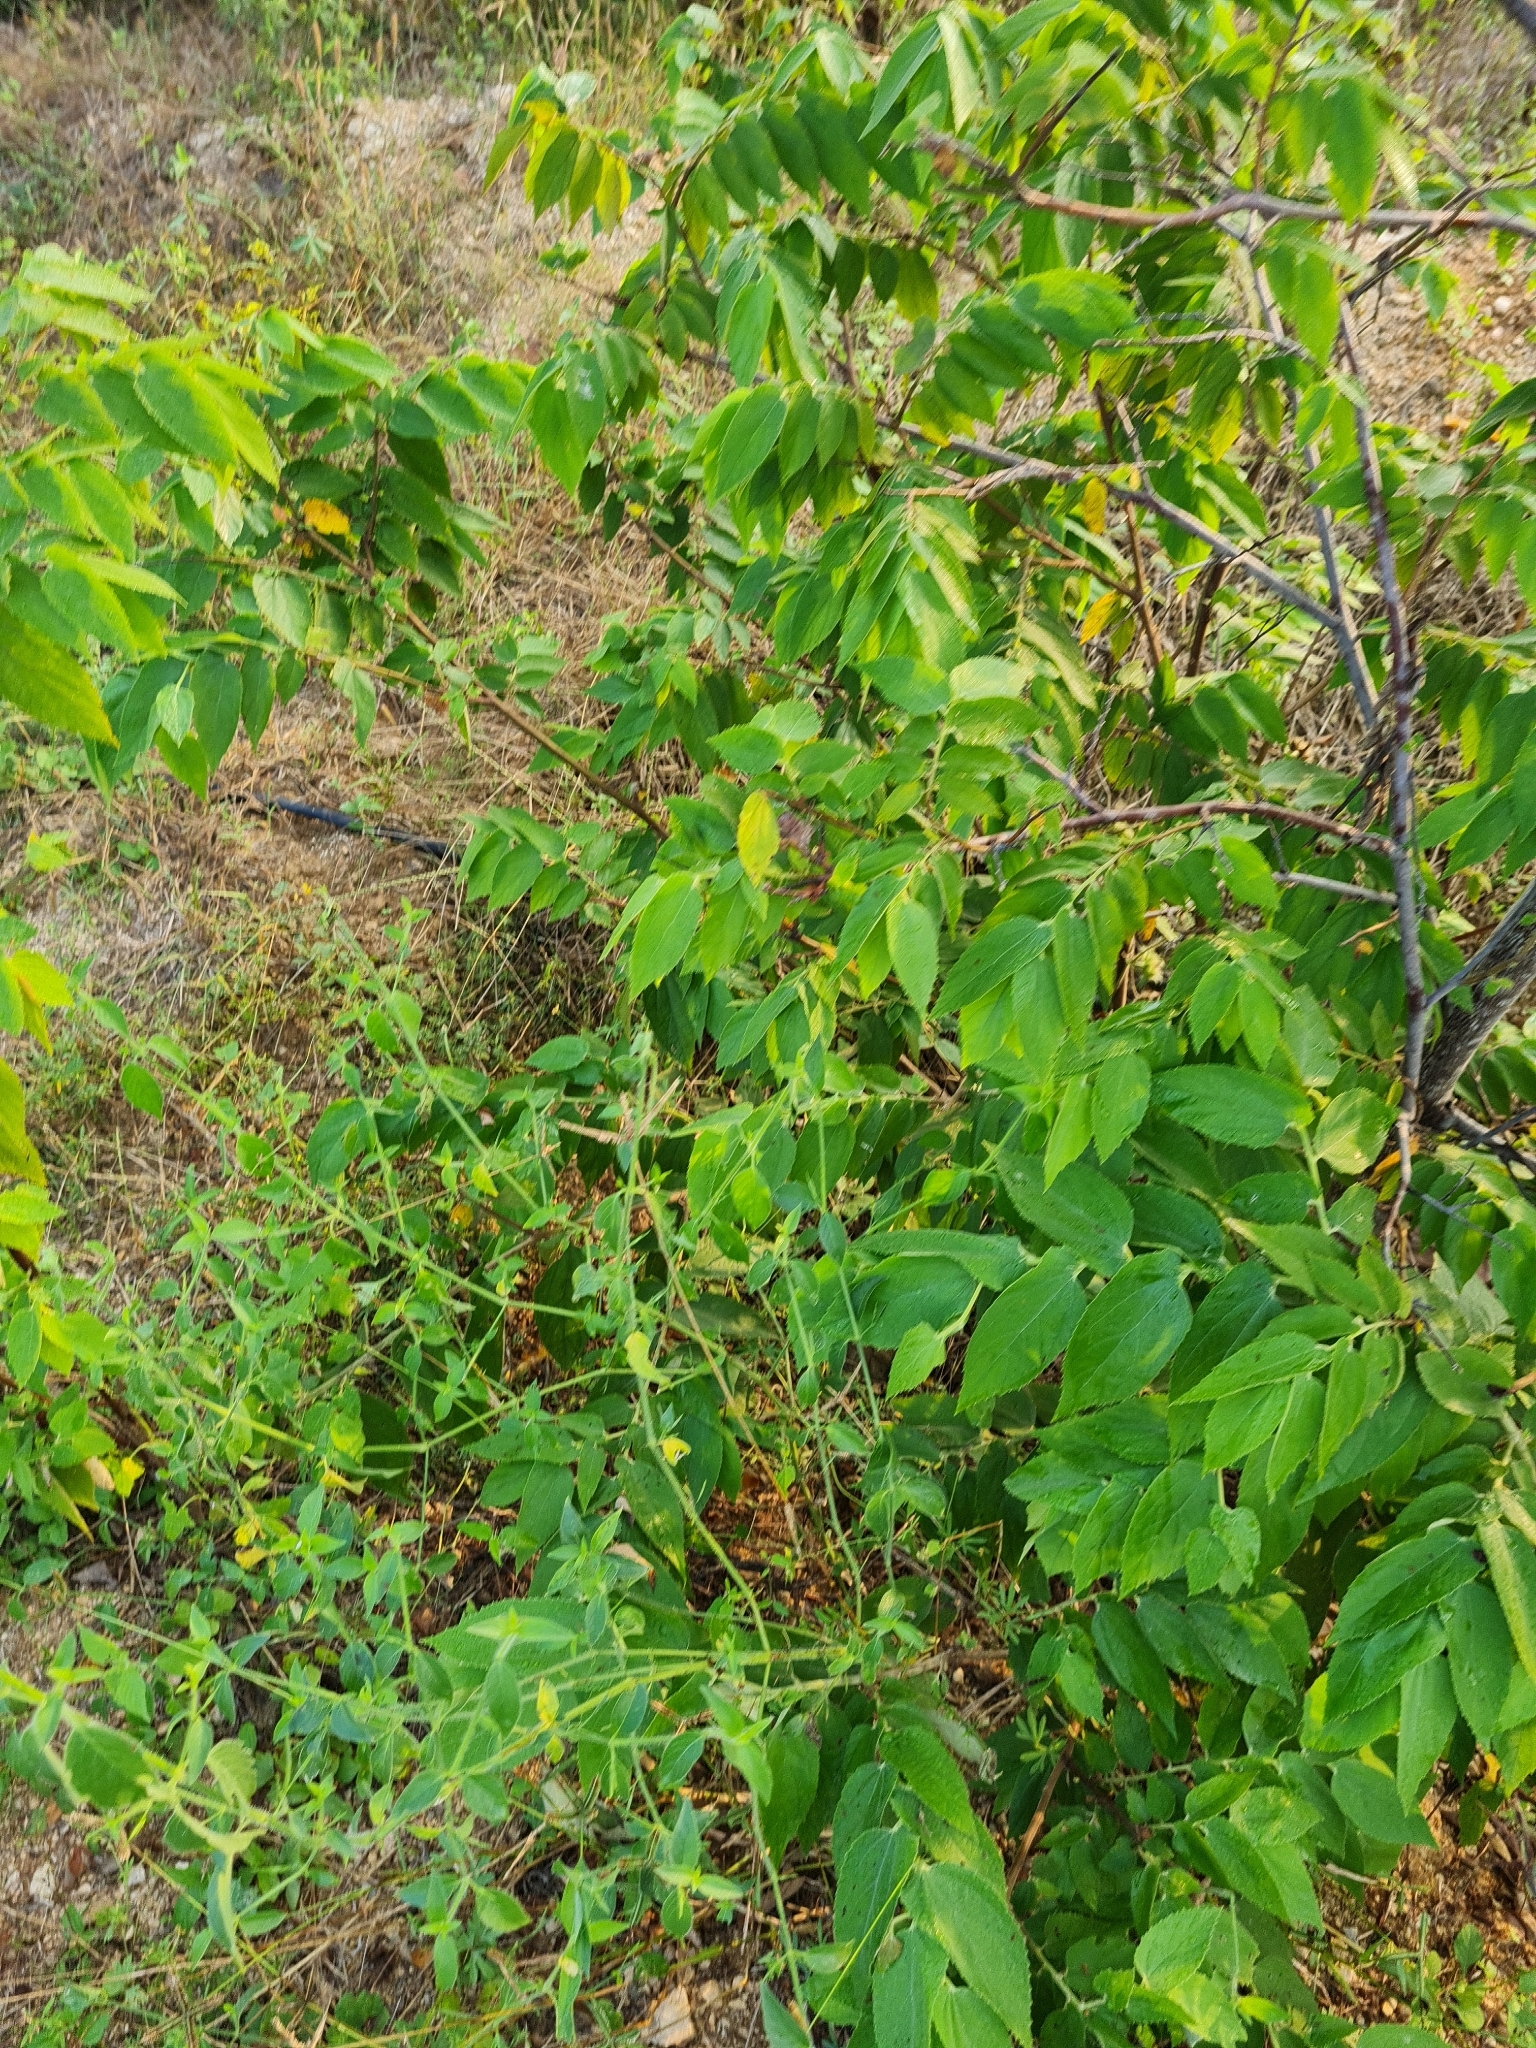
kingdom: Plantae
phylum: Tracheophyta
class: Magnoliopsida
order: Malvales
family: Muntingiaceae
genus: Muntingia
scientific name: Muntingia calabura
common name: Strawberrytree
